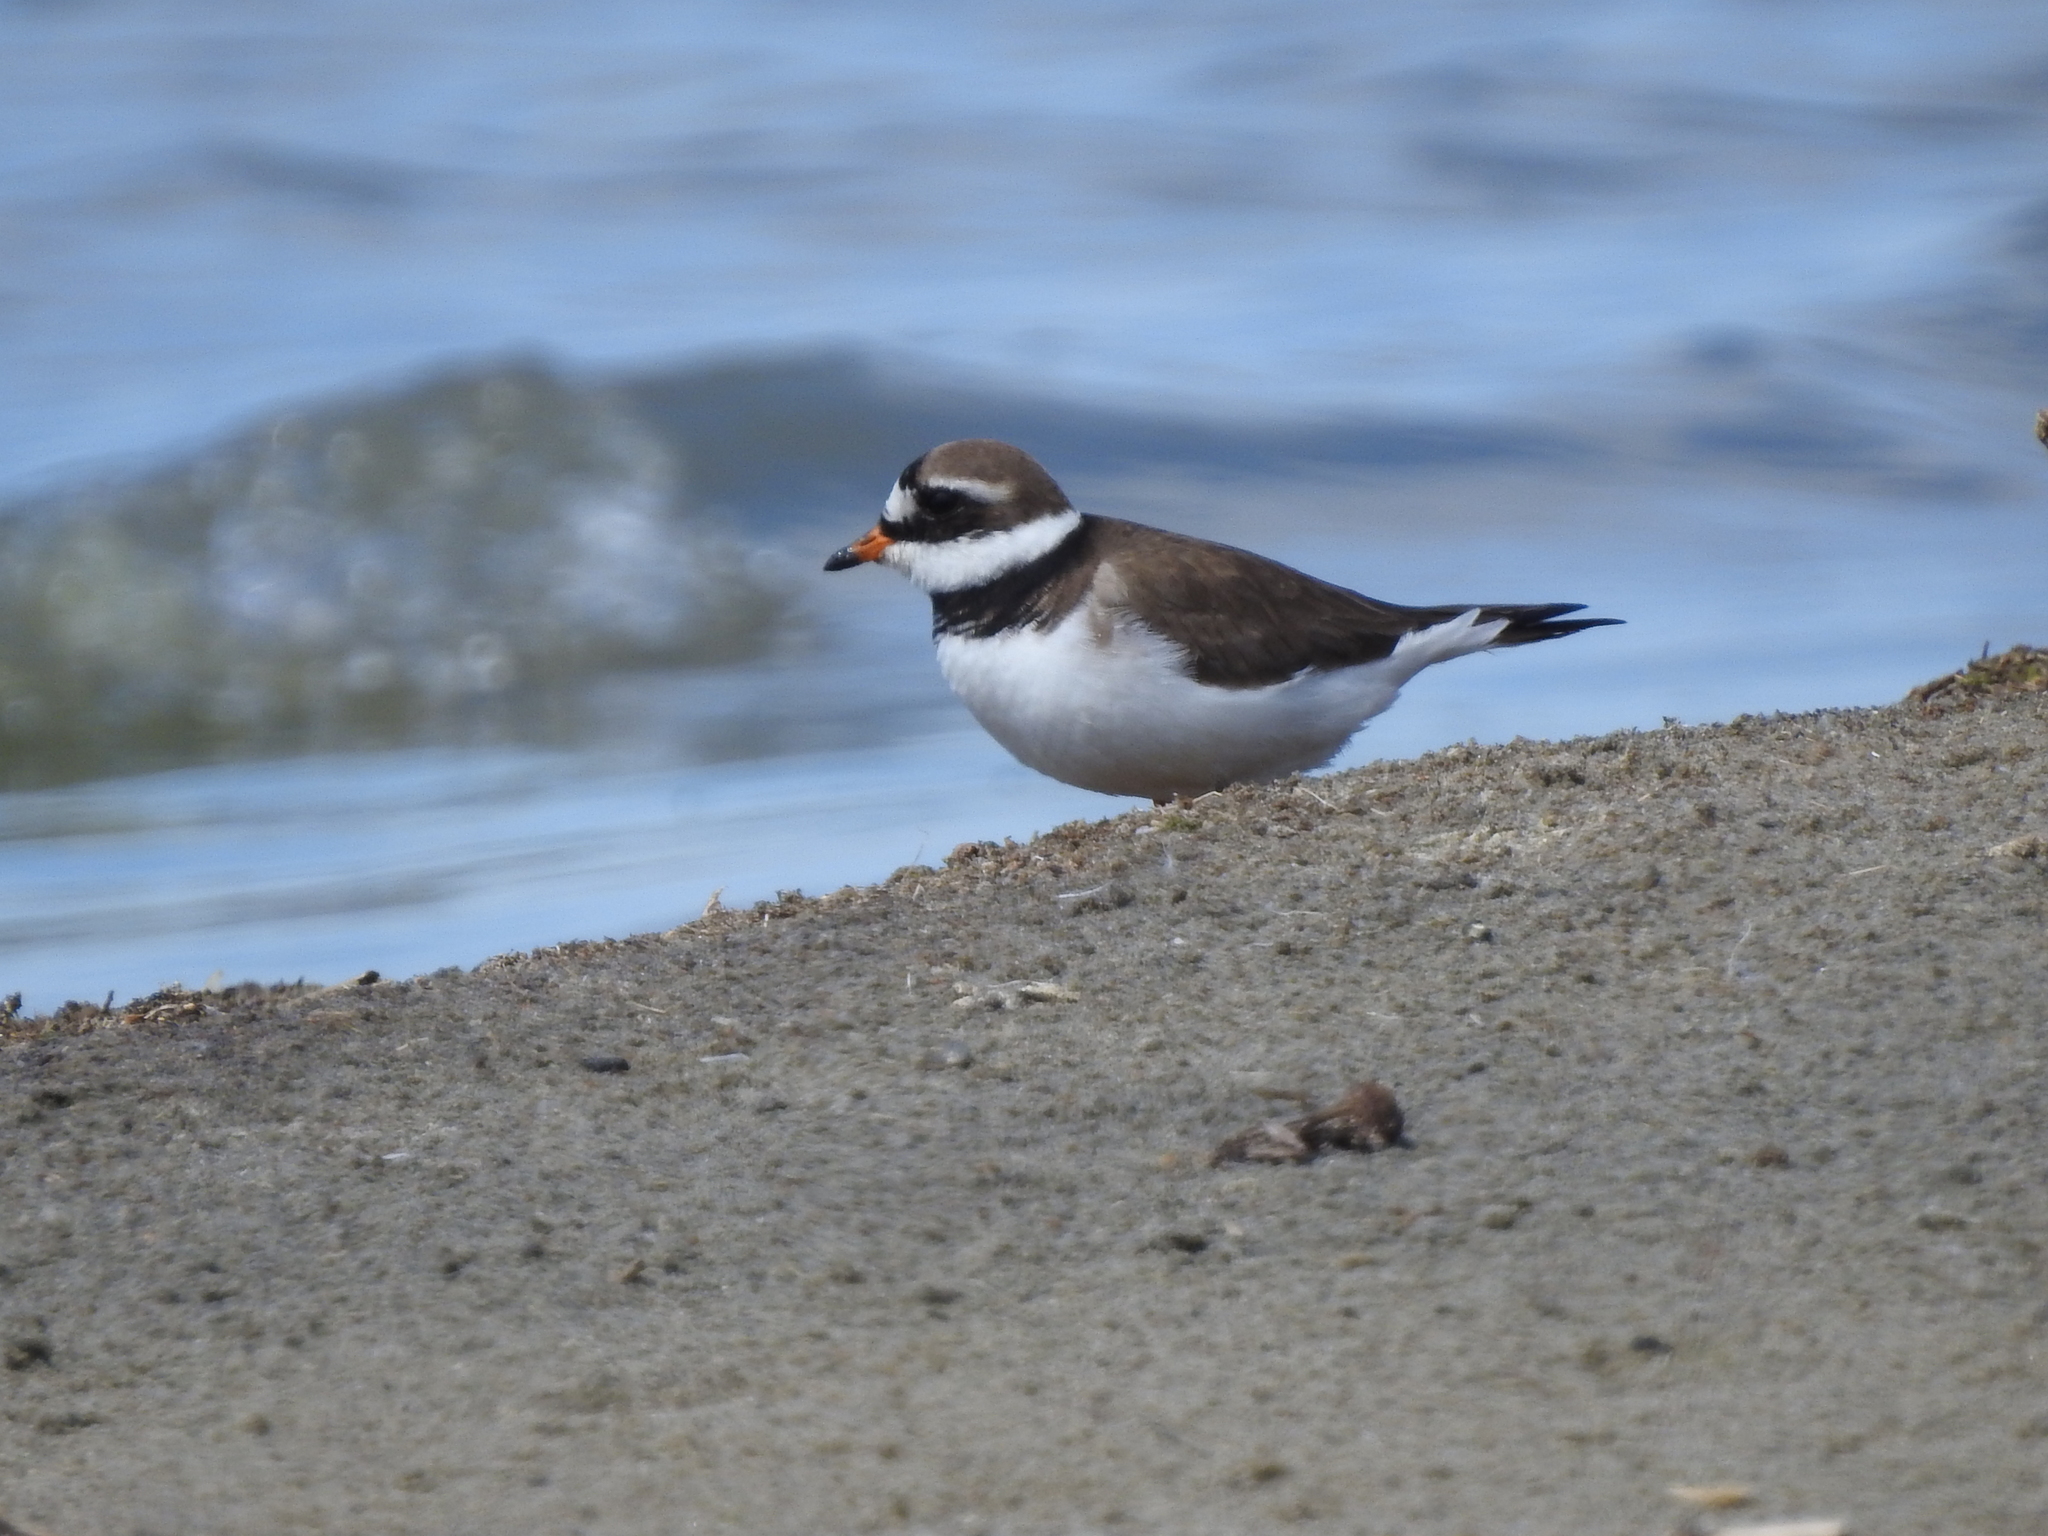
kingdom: Animalia
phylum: Chordata
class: Aves
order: Charadriiformes
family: Charadriidae
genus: Charadrius
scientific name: Charadrius hiaticula
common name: Common ringed plover
